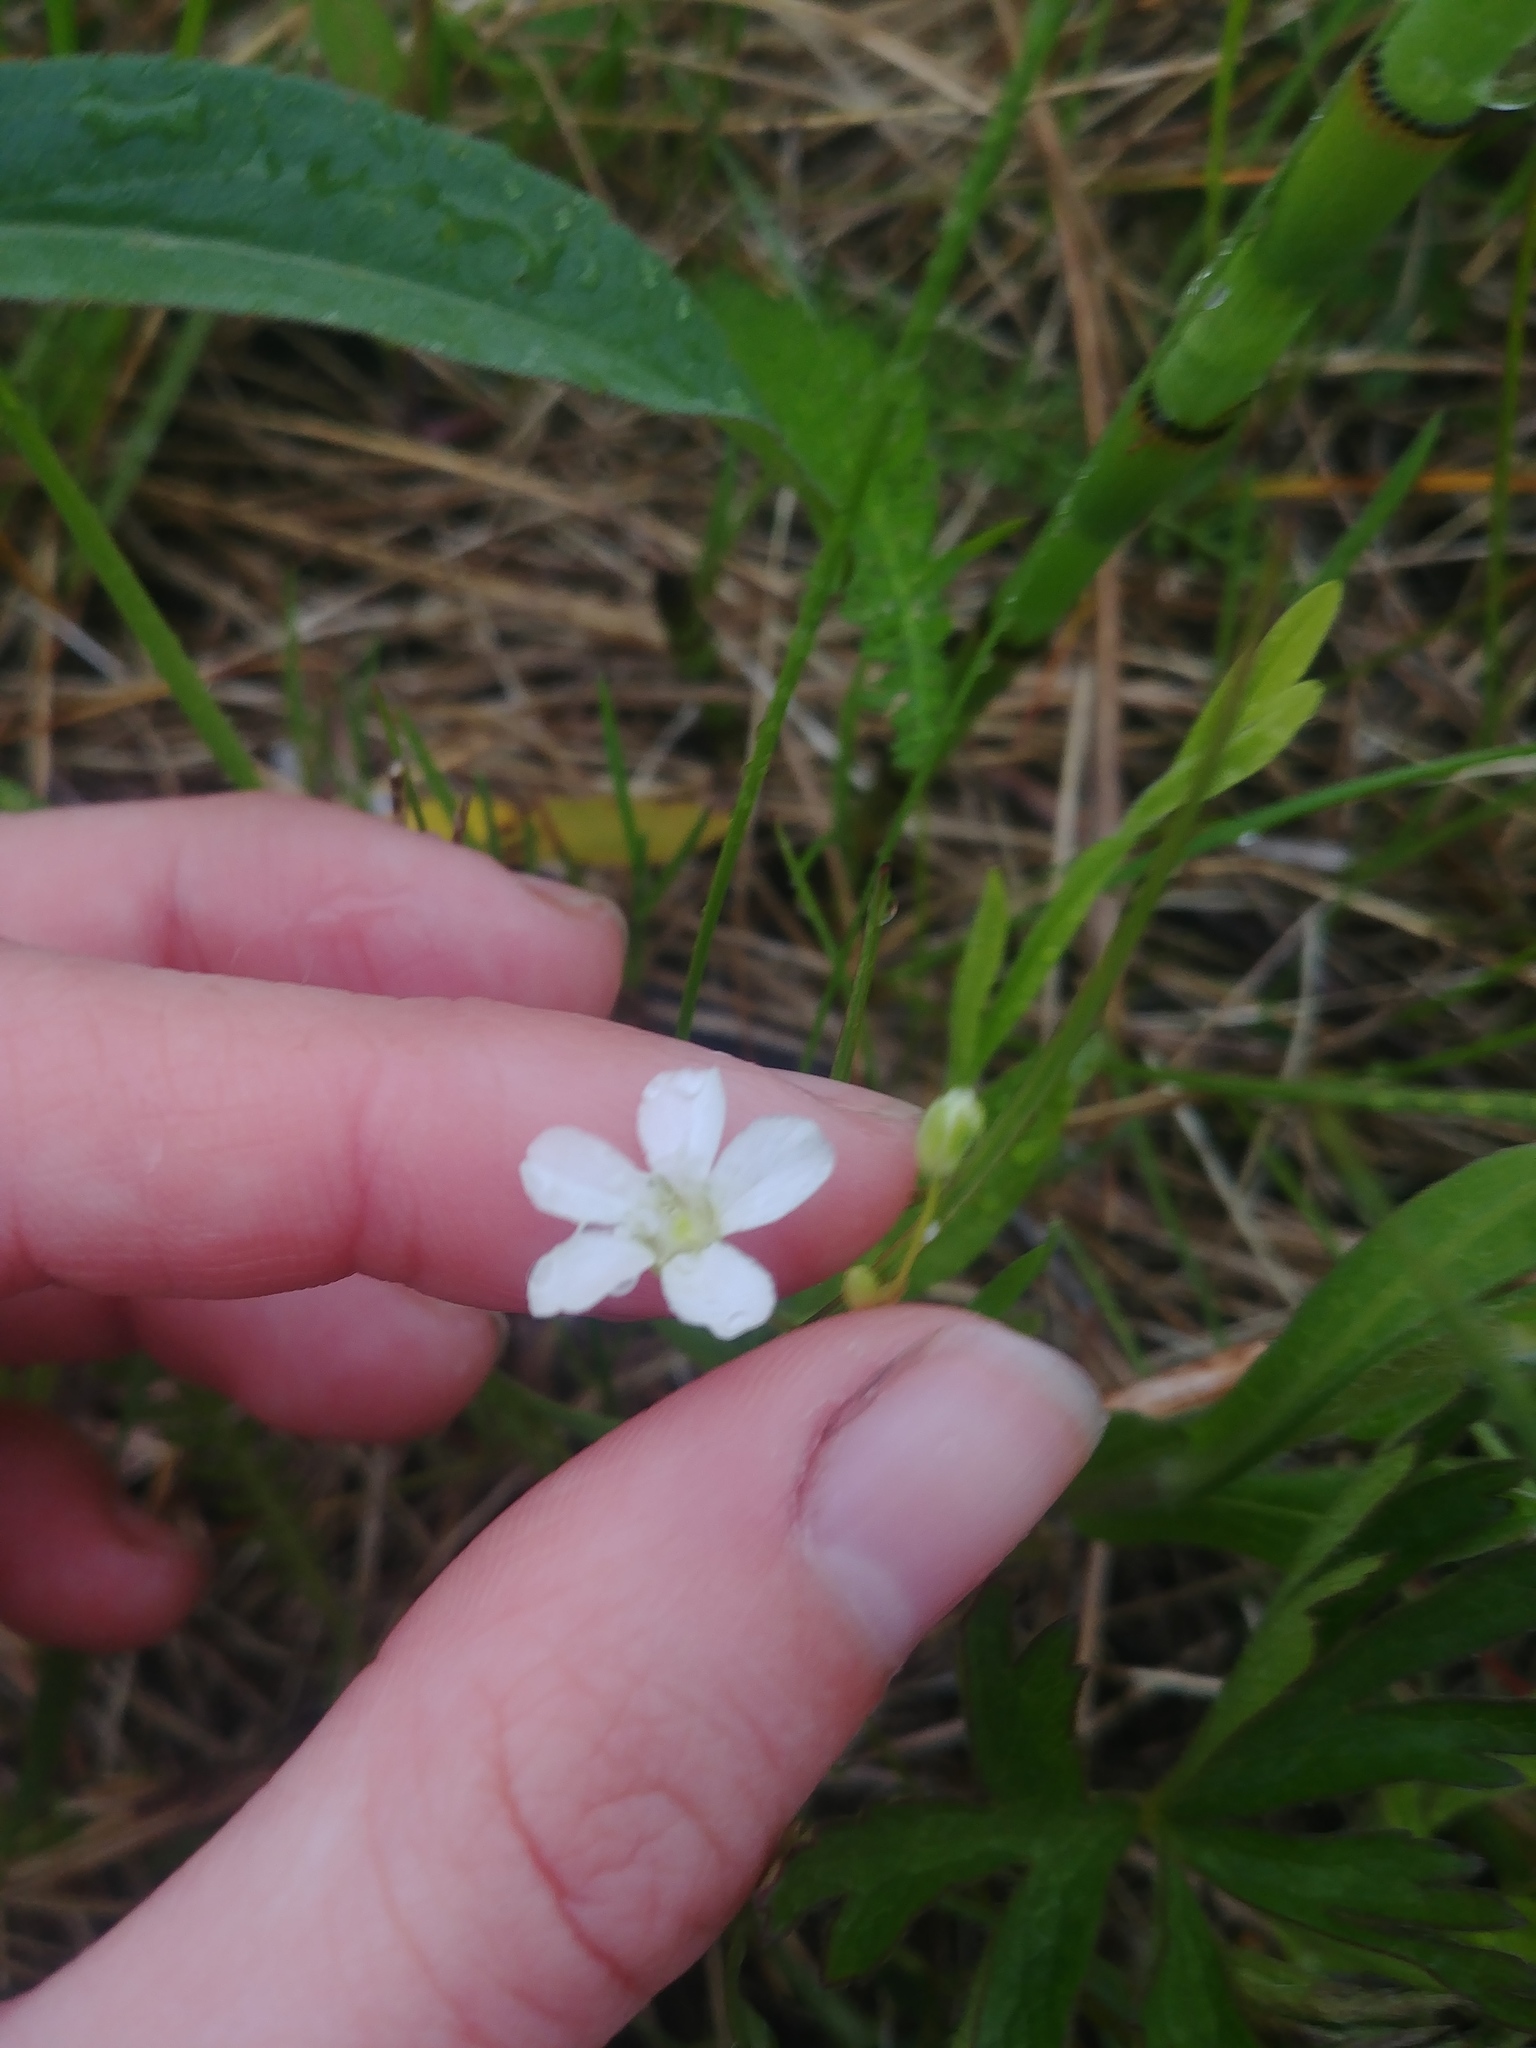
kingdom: Plantae
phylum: Tracheophyta
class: Magnoliopsida
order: Caryophyllales
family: Caryophyllaceae
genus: Moehringia
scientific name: Moehringia lateriflora
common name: Blunt-leaved sandwort
